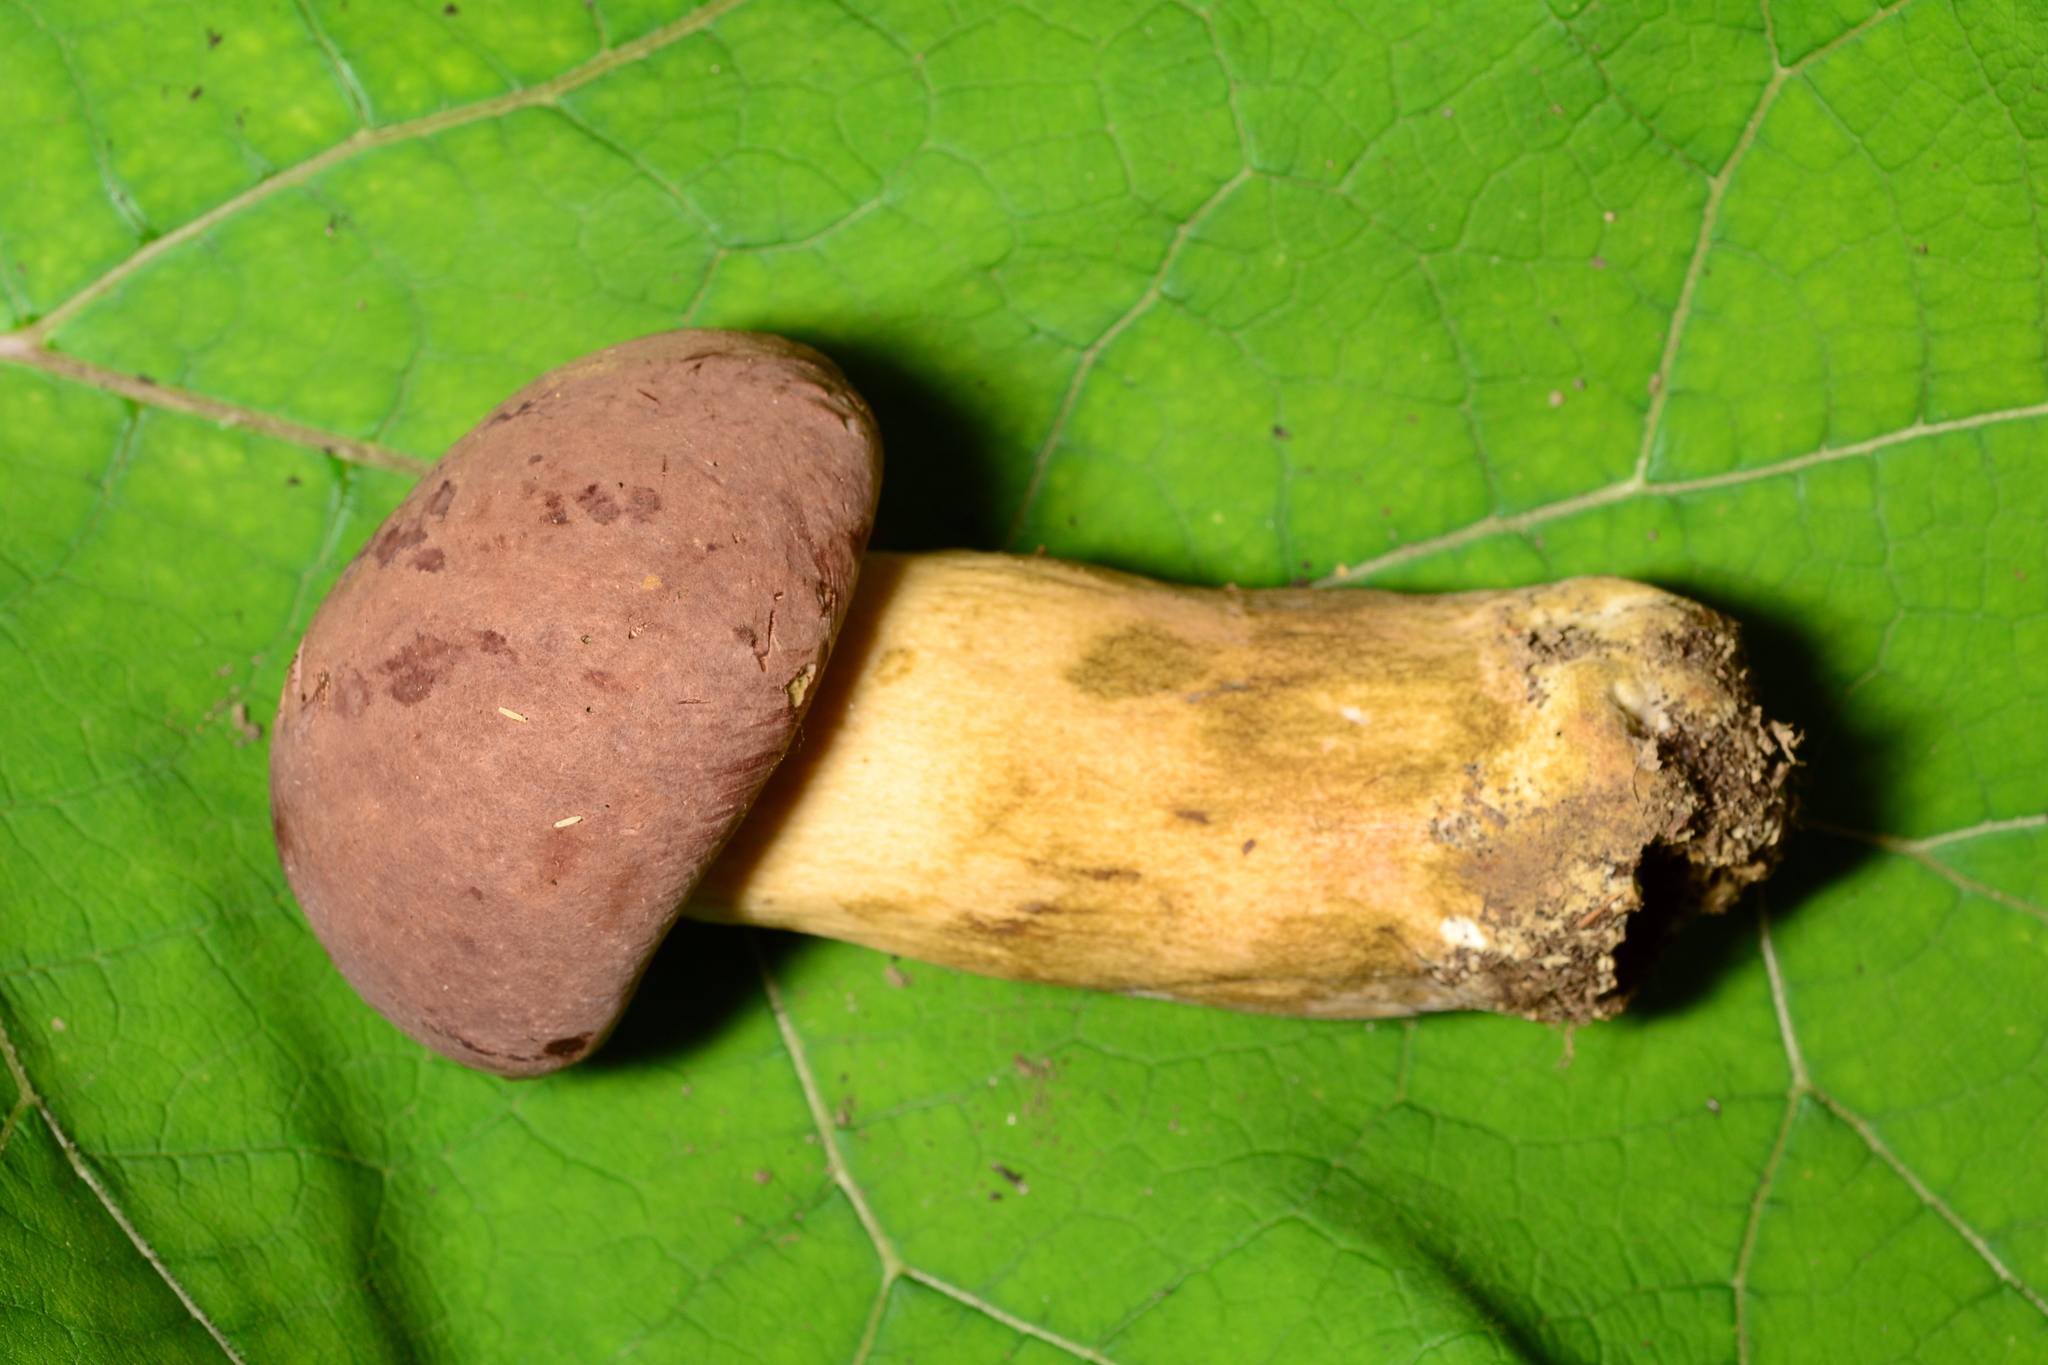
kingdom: Fungi
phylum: Basidiomycota
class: Agaricomycetes
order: Boletales
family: Boletaceae
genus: Tylopilus
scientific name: Tylopilus rubrobrunneus
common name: Reddish brown bitter bolete
